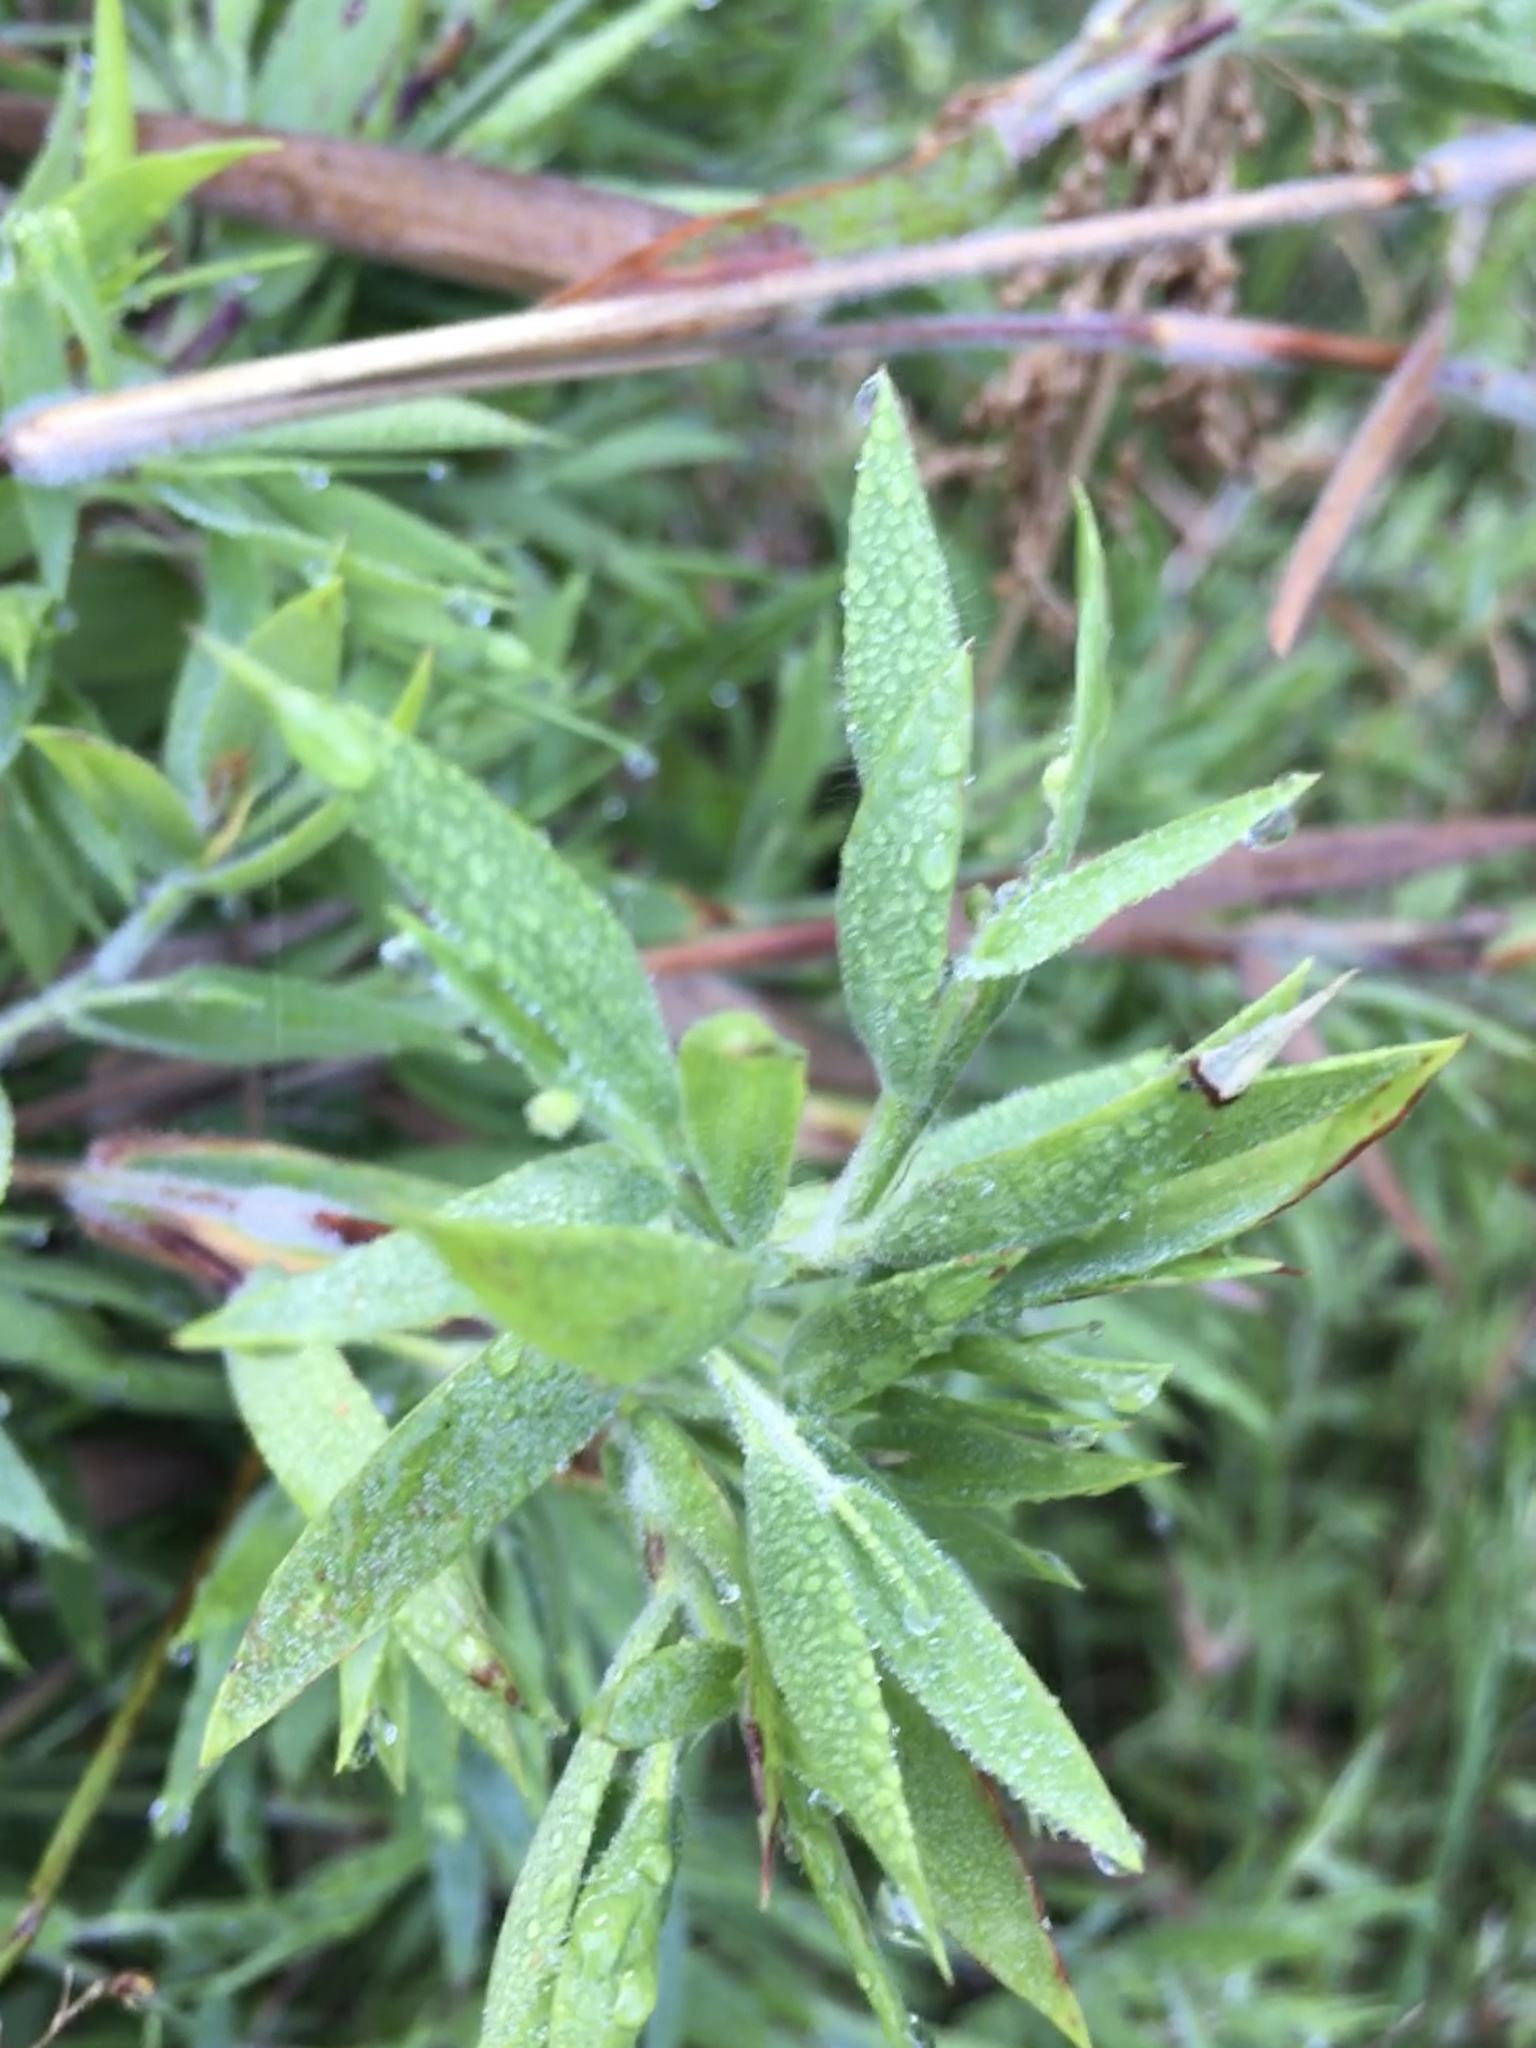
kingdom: Plantae
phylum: Tracheophyta
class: Liliopsida
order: Poales
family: Poaceae
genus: Dichanthelium
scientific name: Dichanthelium scoparium
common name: Velvety panic grass
